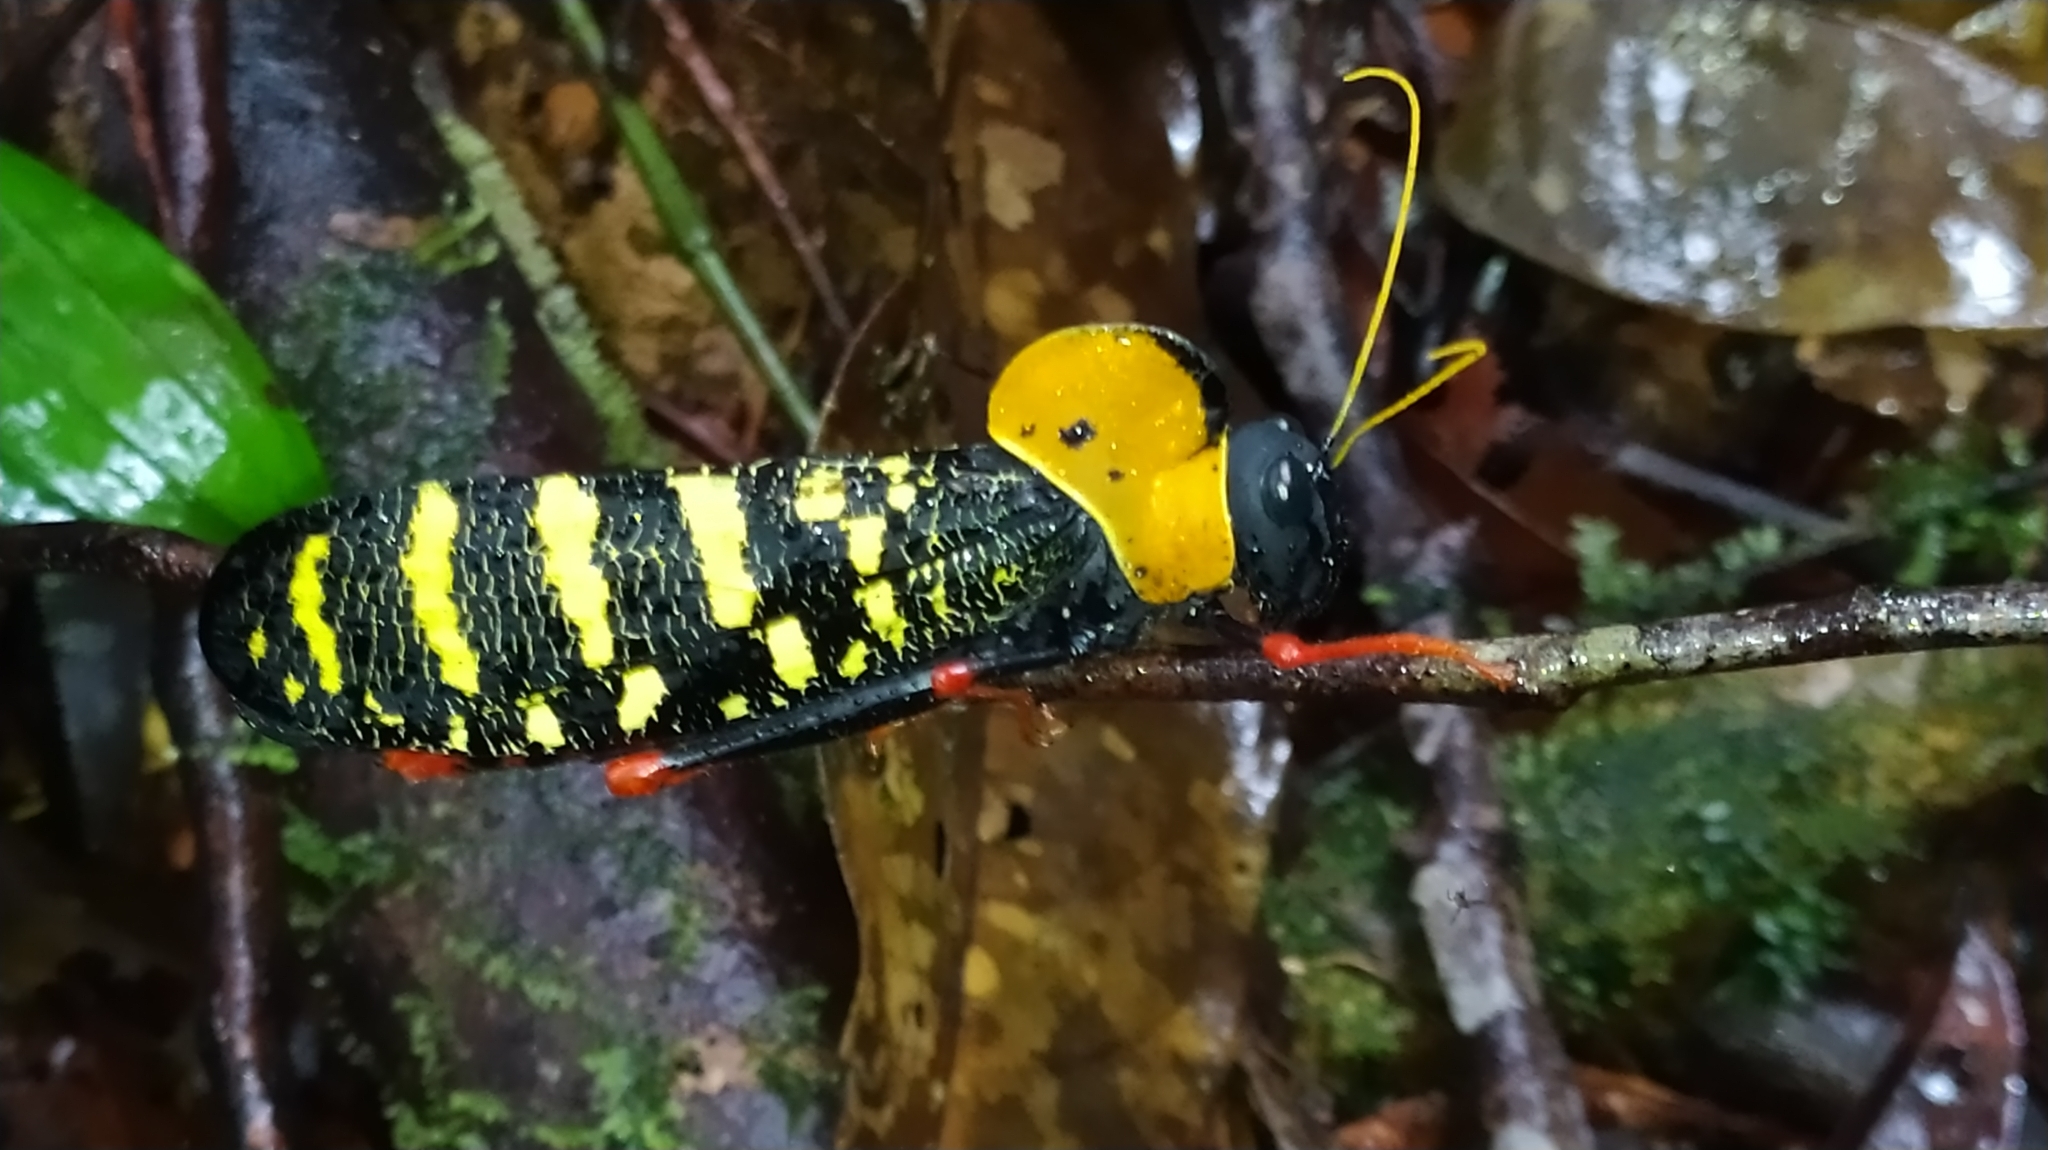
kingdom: Animalia
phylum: Arthropoda
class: Insecta
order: Orthoptera
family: Acrididae
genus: Monachidium
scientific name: Monachidium lunum
